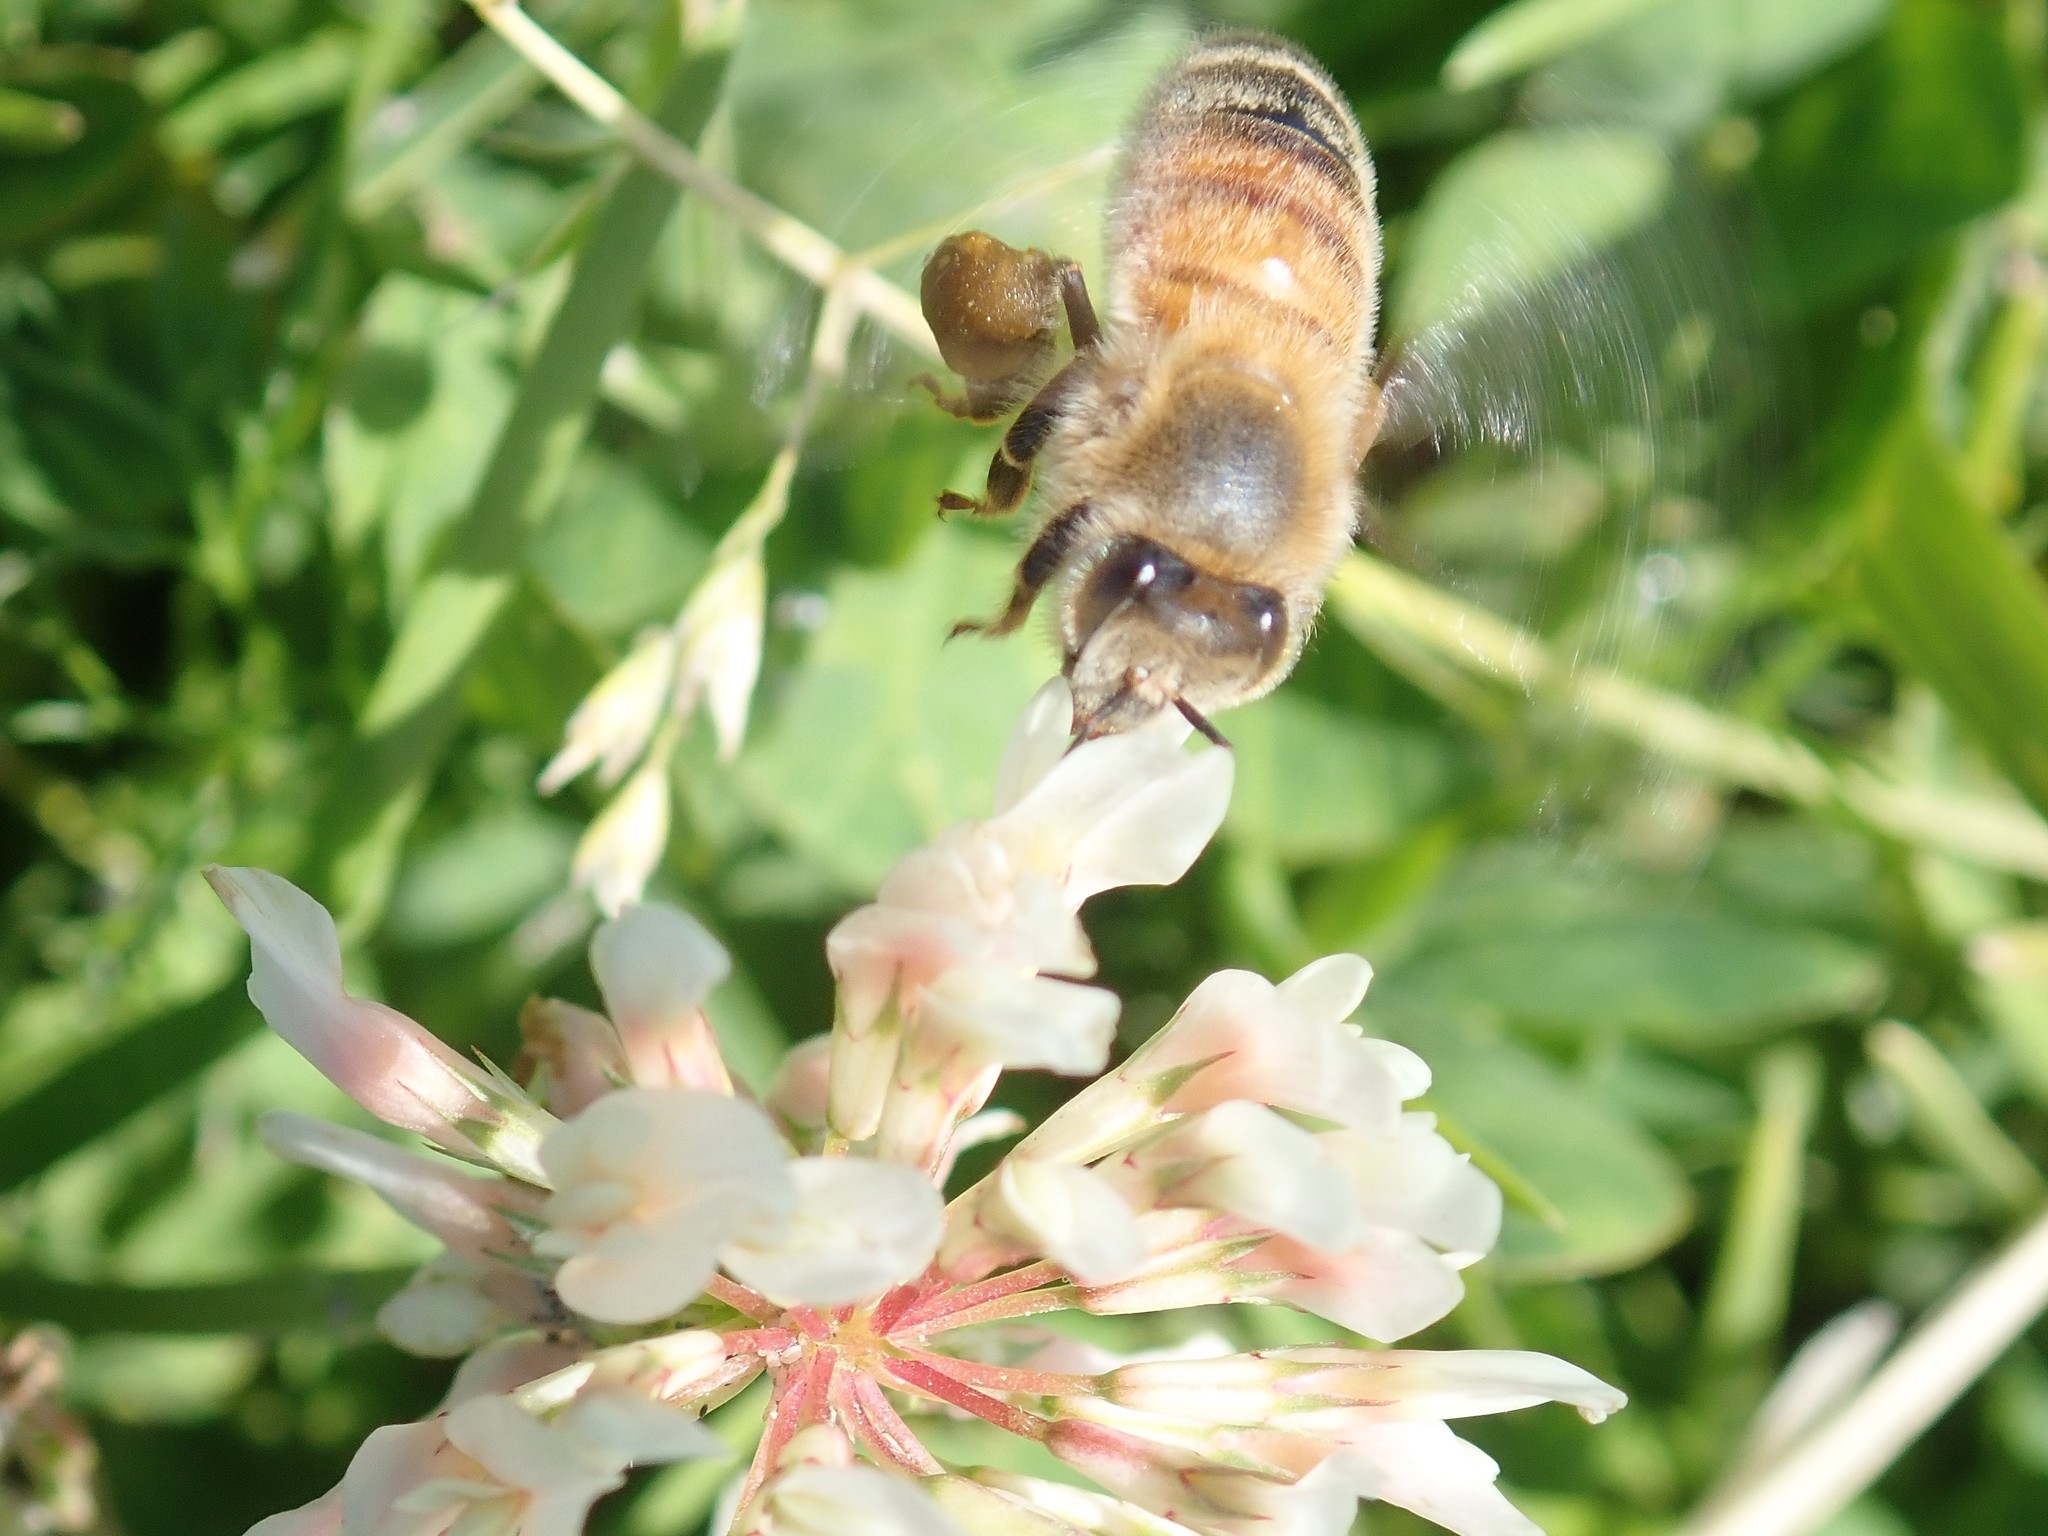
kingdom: Animalia
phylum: Arthropoda
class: Insecta
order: Hymenoptera
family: Apidae
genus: Apis
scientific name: Apis mellifera
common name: Honey bee
